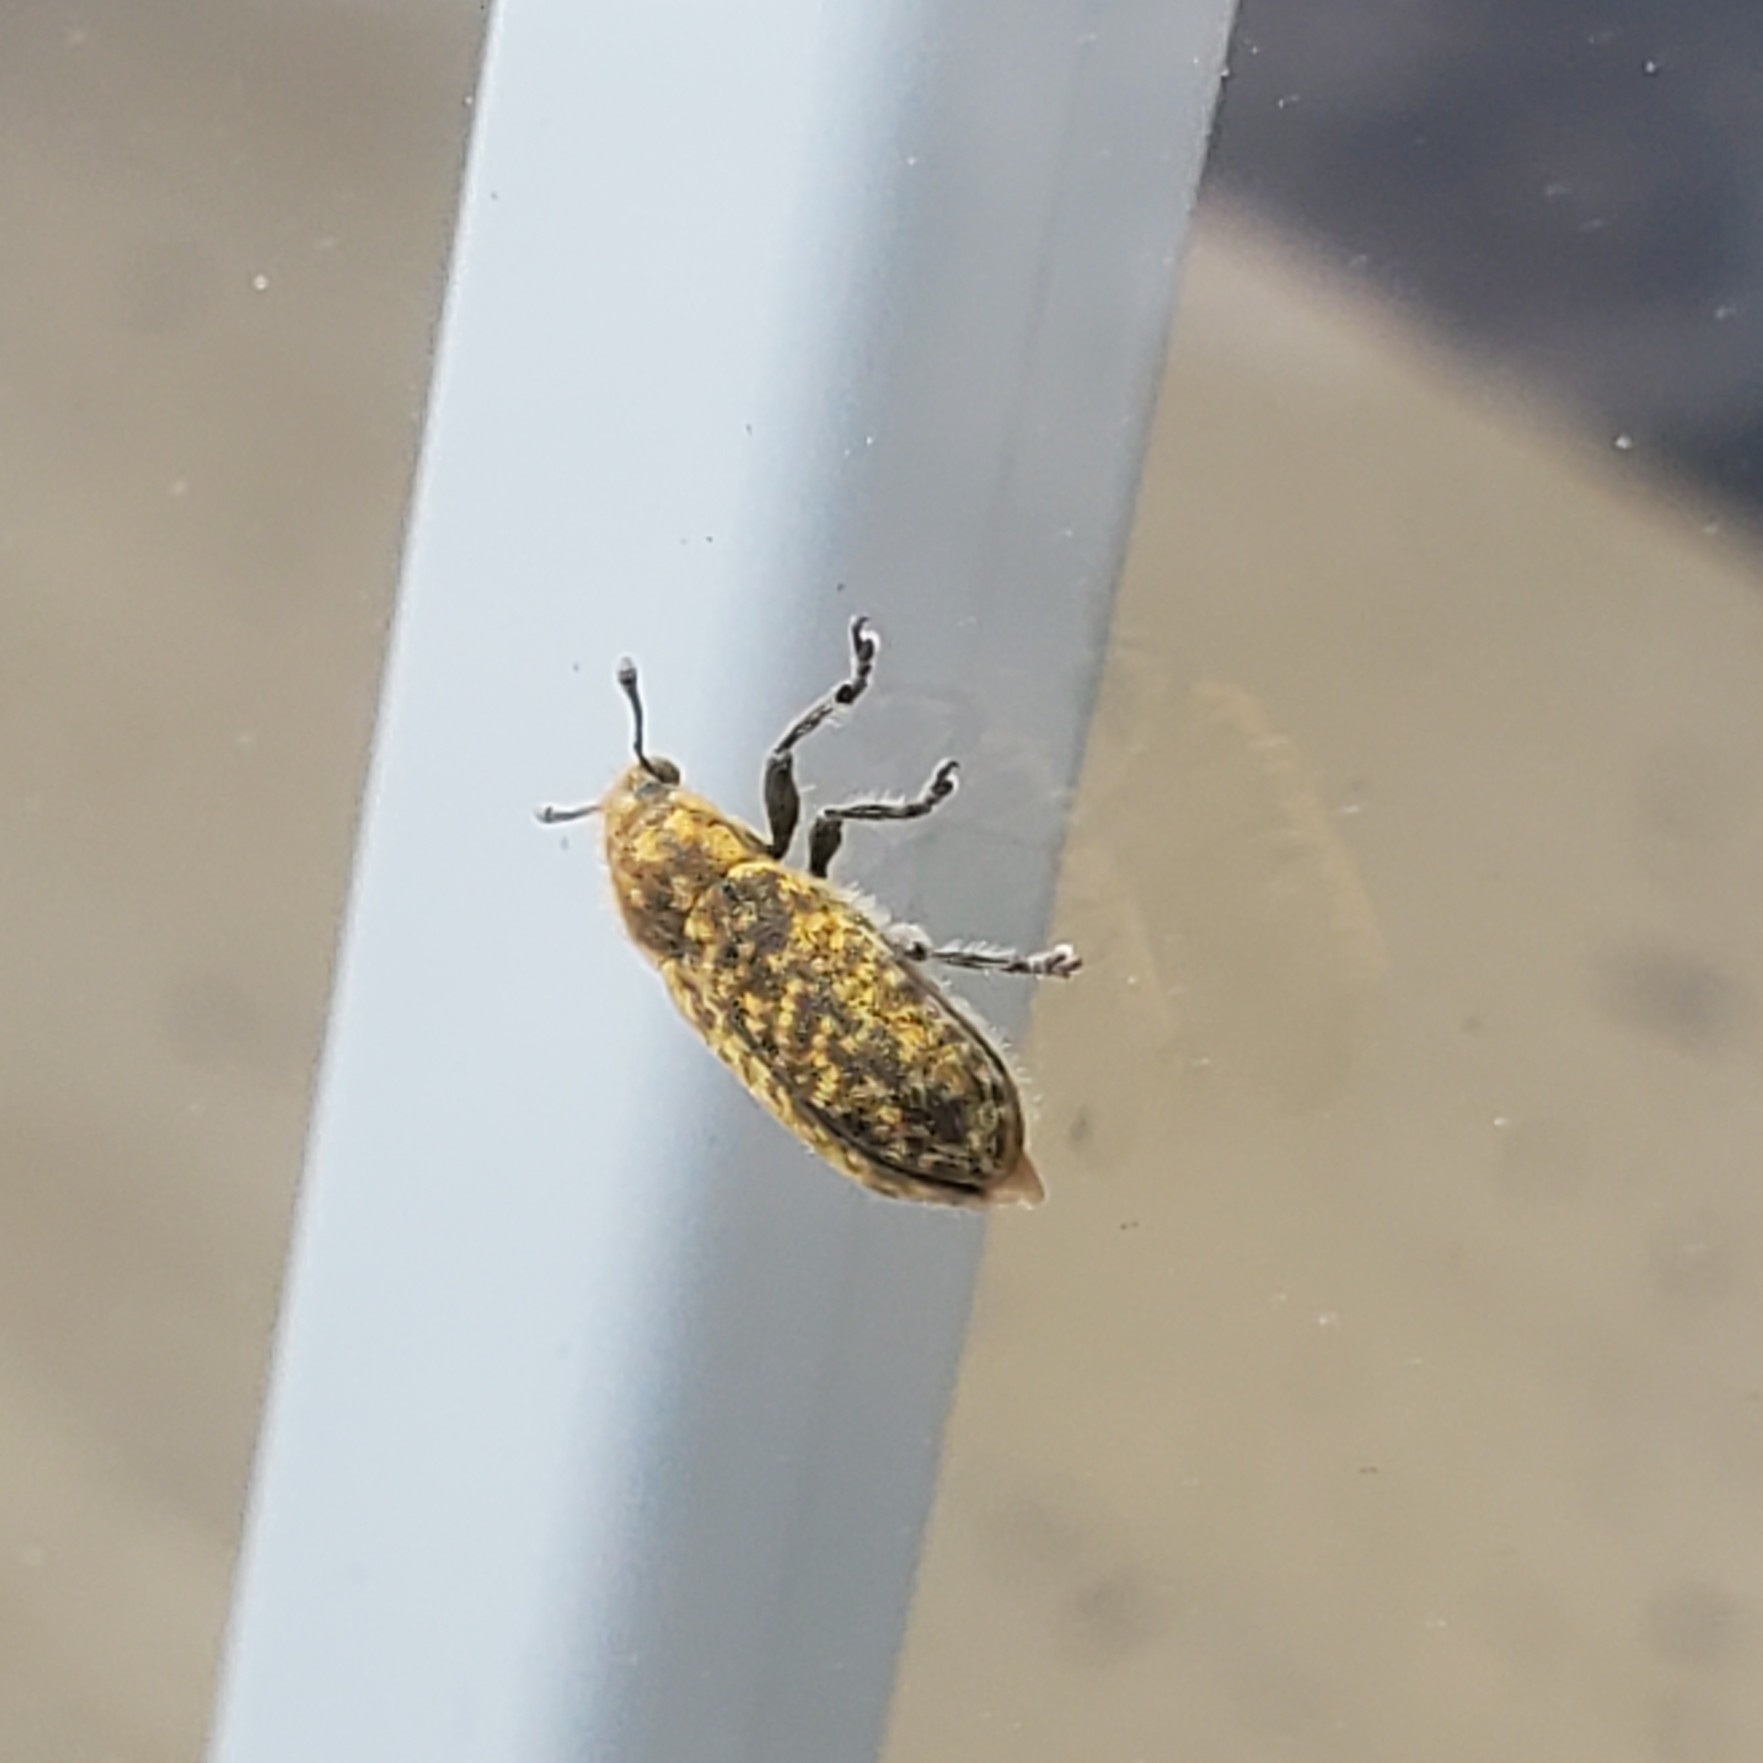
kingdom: Animalia
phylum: Arthropoda
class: Insecta
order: Coleoptera
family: Curculionidae
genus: Rhinocyllus
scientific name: Rhinocyllus conicus
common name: Weevil
